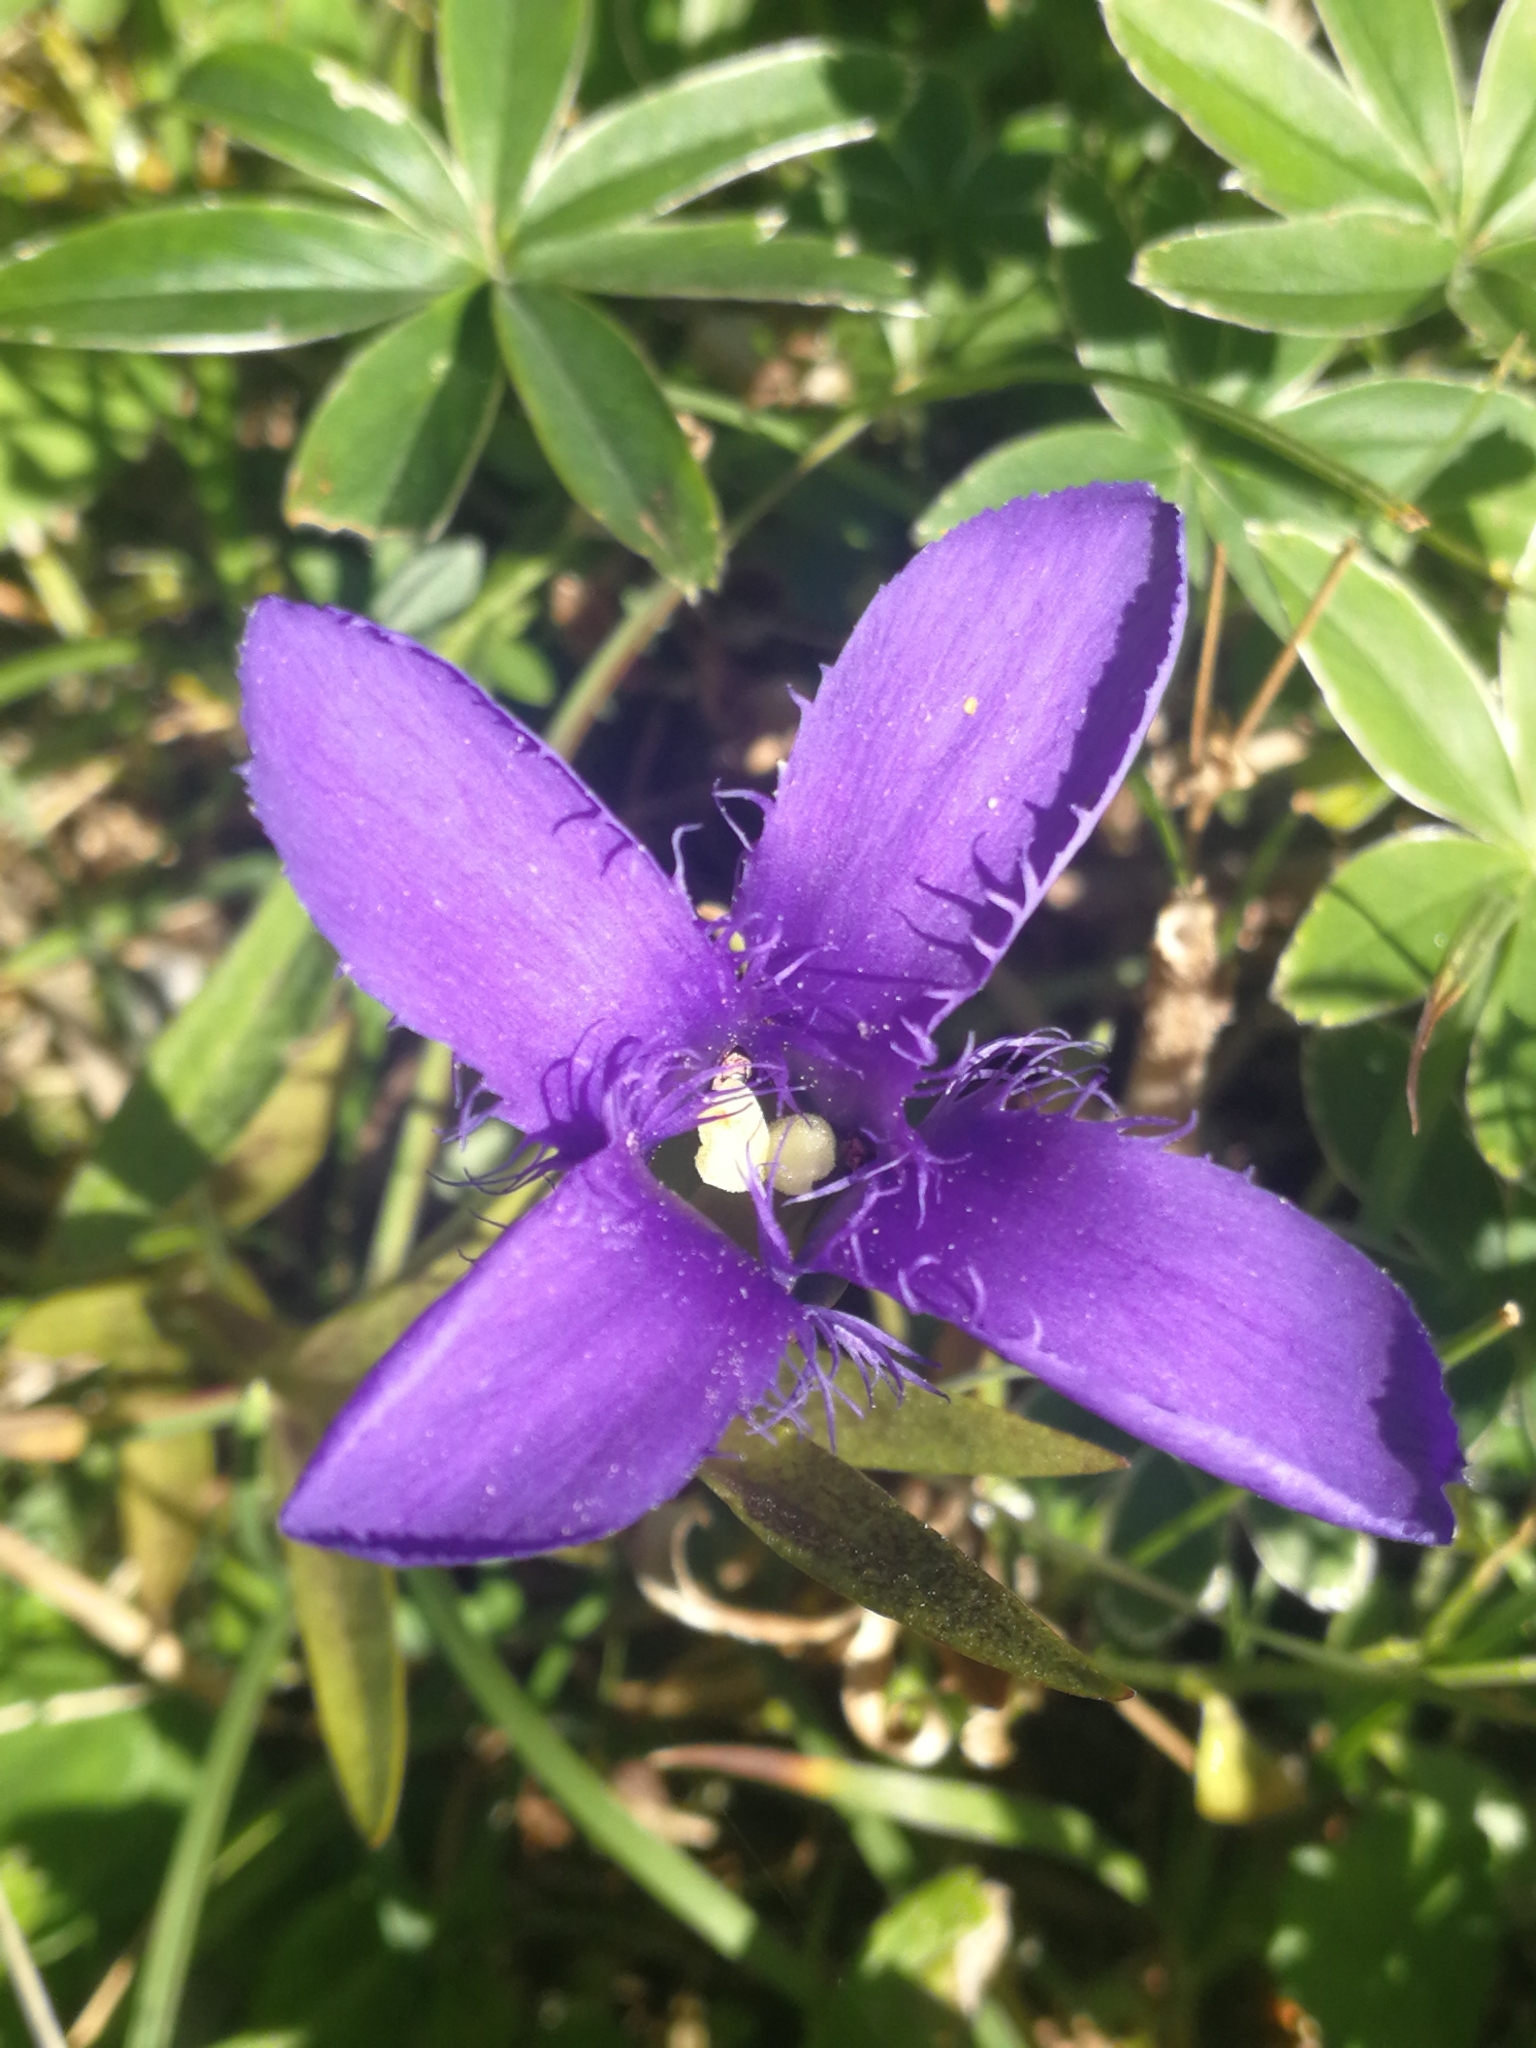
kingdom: Plantae
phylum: Tracheophyta
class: Magnoliopsida
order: Gentianales
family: Gentianaceae
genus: Gentianopsis
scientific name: Gentianopsis ciliata
